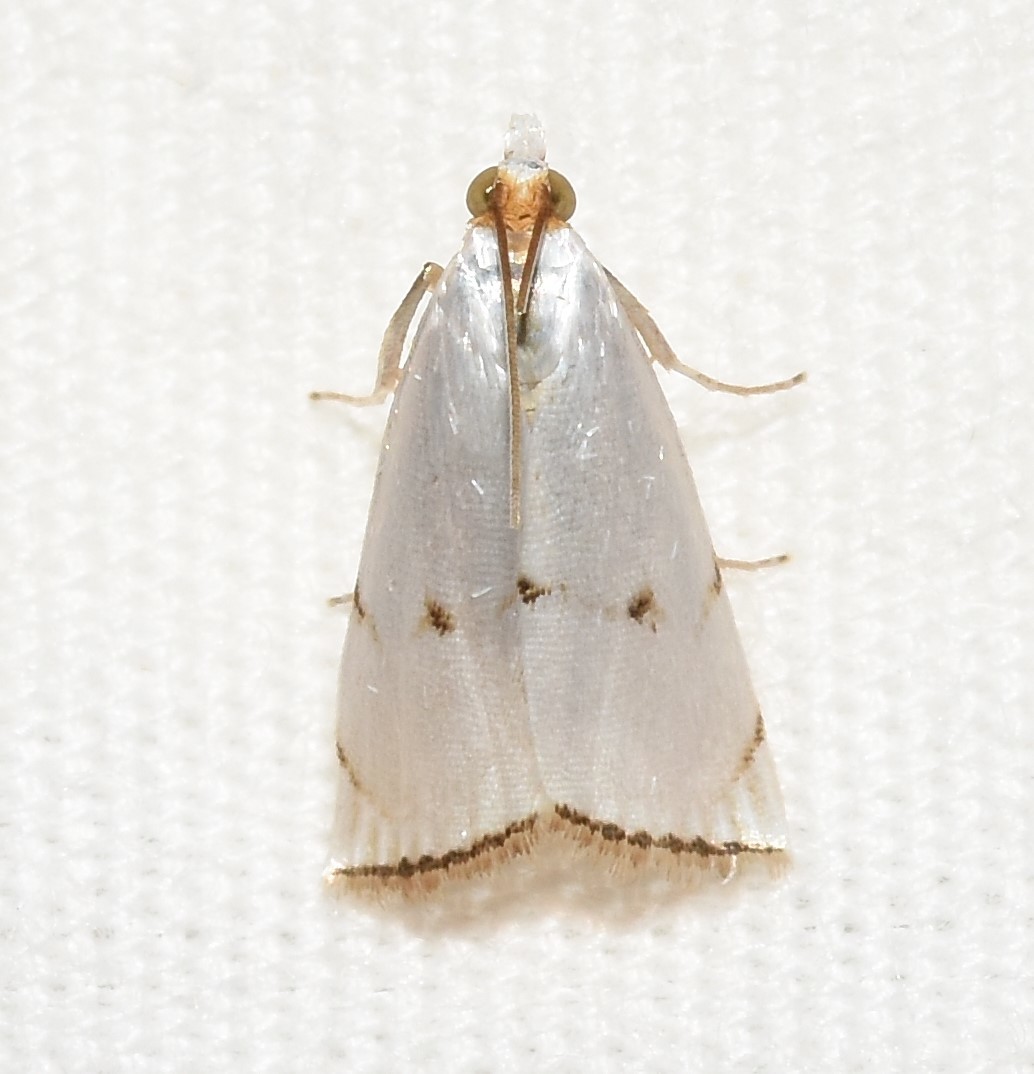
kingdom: Animalia
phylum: Arthropoda
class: Insecta
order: Lepidoptera
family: Crambidae
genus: Argyria
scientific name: Argyria pusillalis
